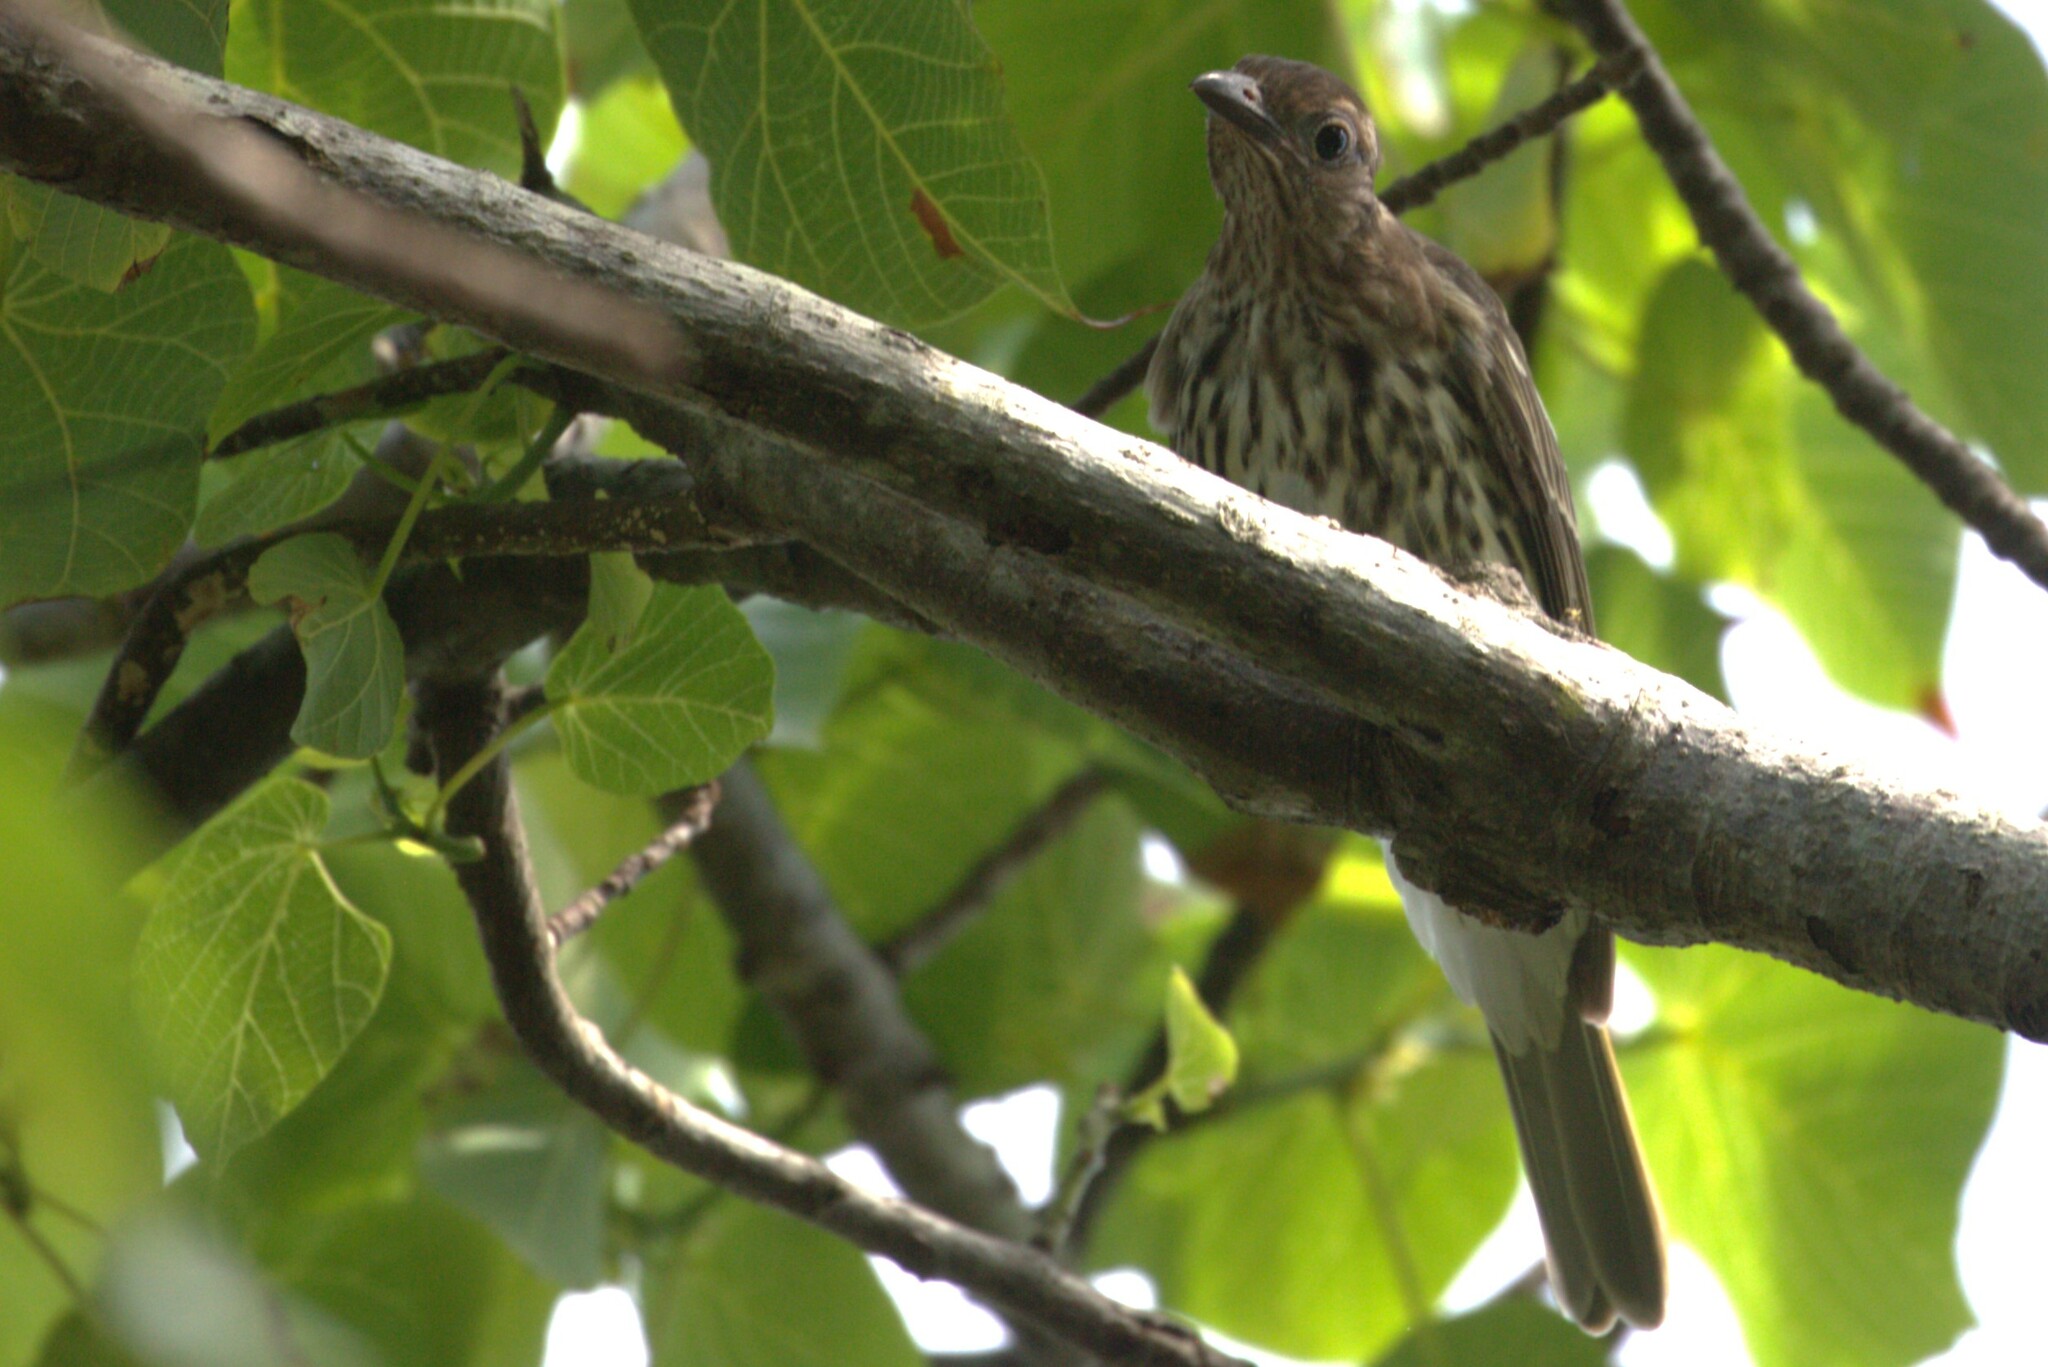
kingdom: Animalia
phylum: Chordata
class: Aves
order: Passeriformes
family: Oriolidae
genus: Sphecotheres
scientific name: Sphecotheres vieilloti
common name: Australasian figbird
